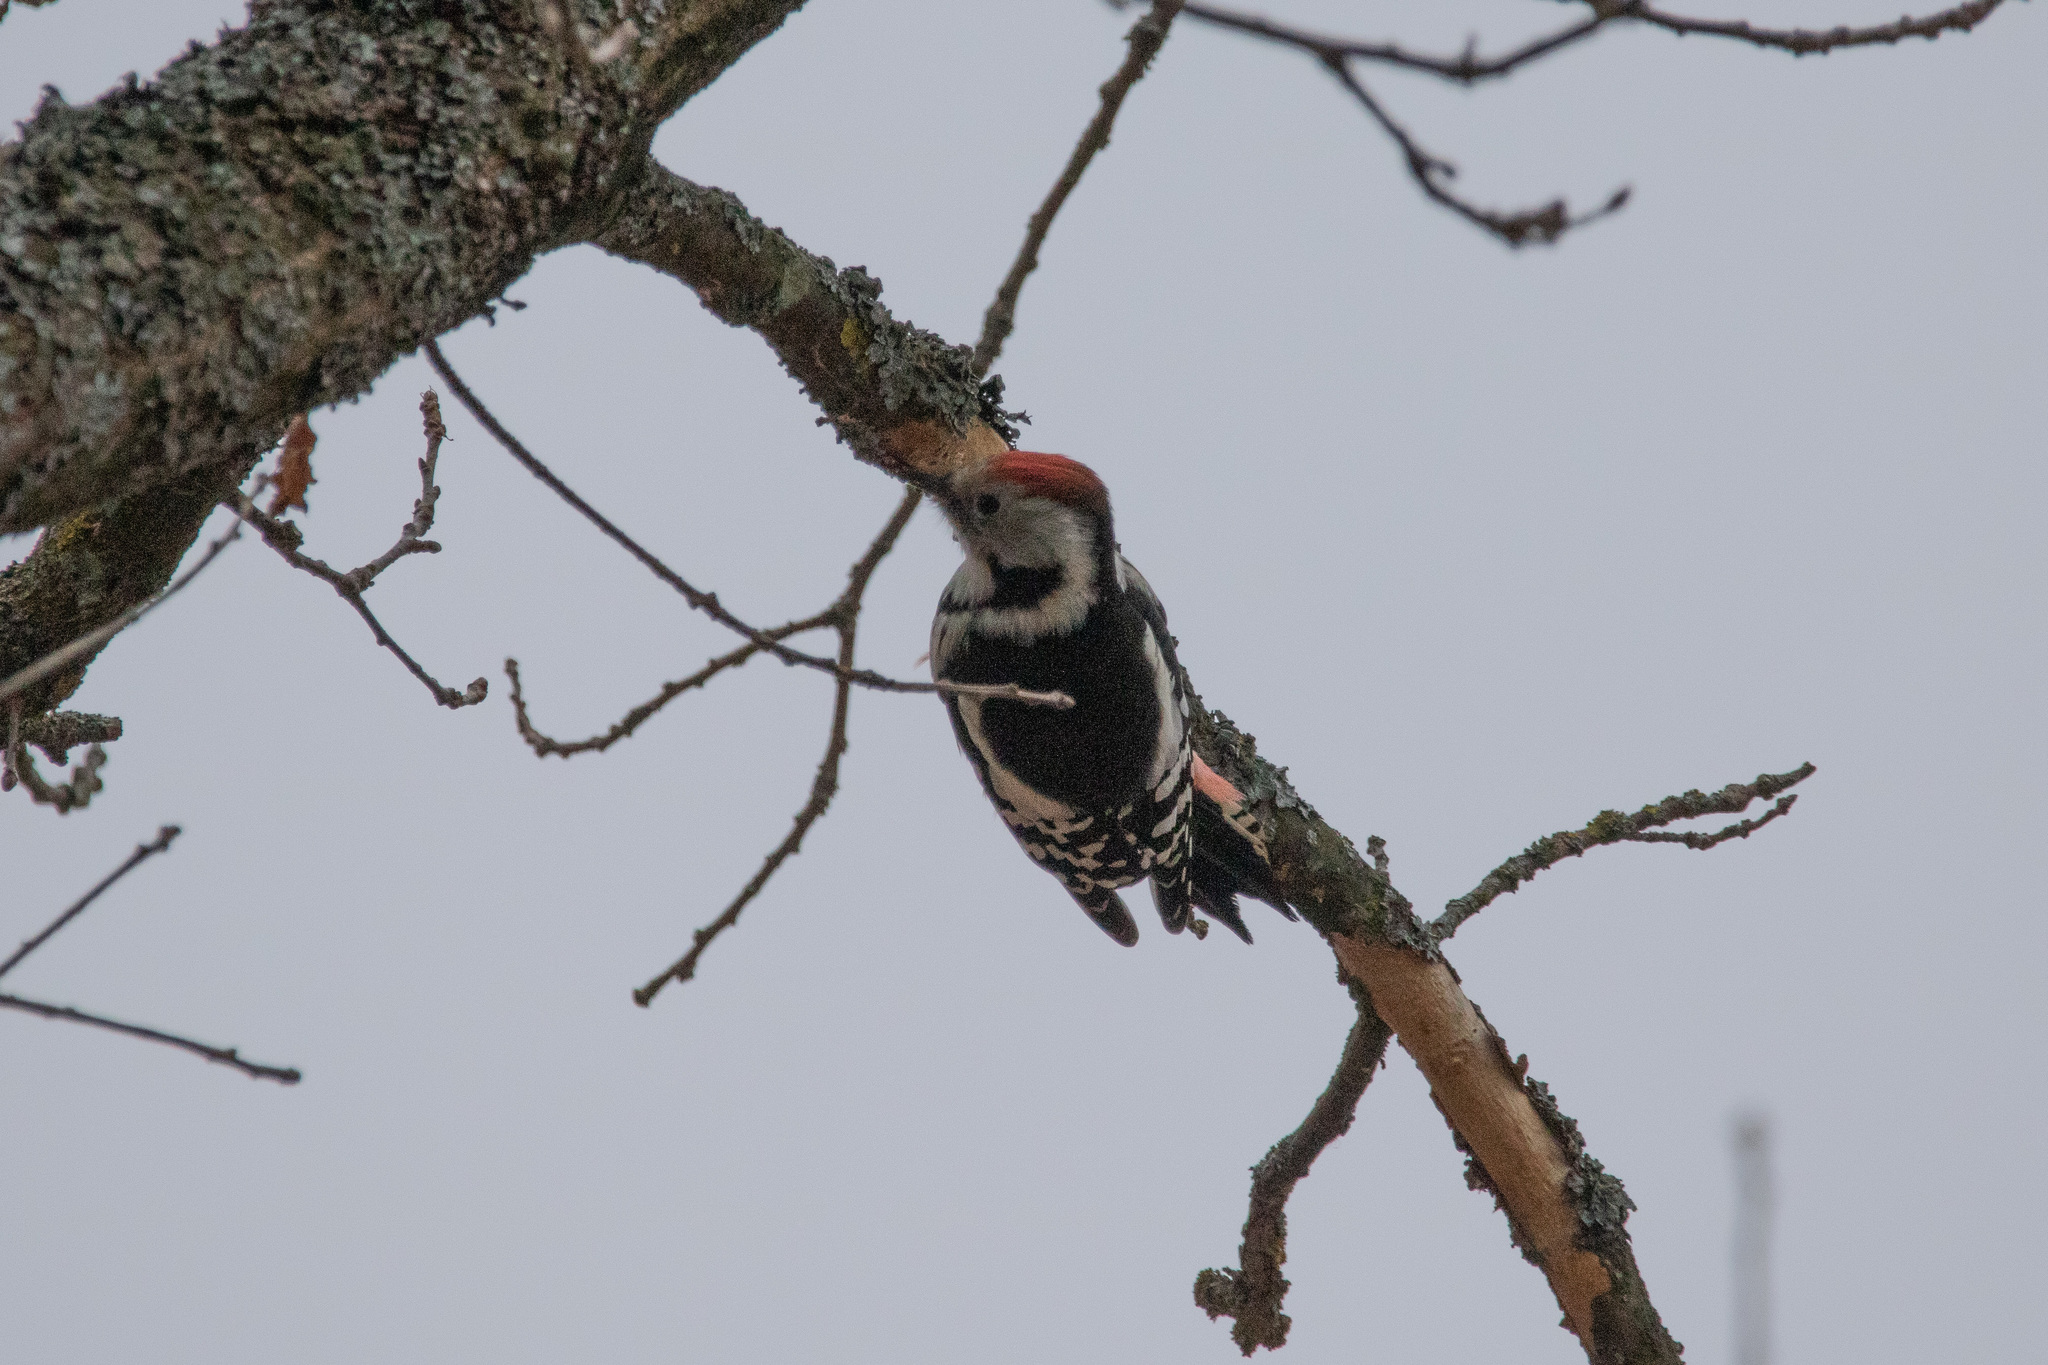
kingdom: Animalia
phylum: Chordata
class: Aves
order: Piciformes
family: Picidae
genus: Dendrocoptes
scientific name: Dendrocoptes medius
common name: Middle spotted woodpecker
